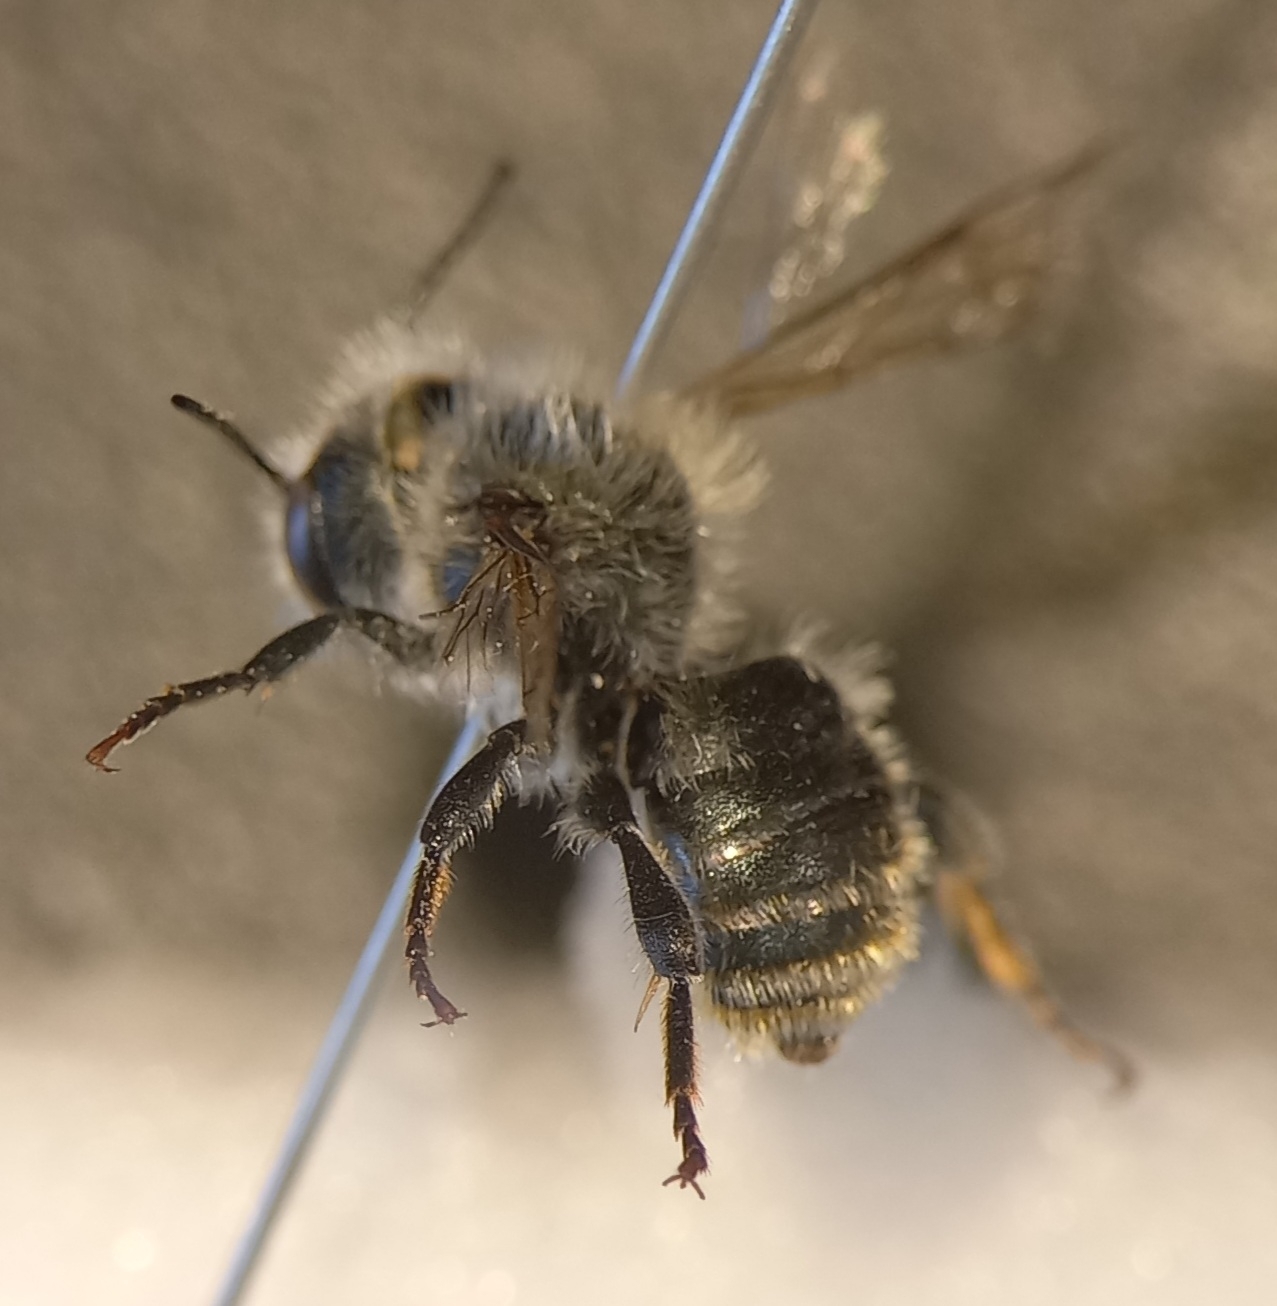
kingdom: Animalia
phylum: Arthropoda
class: Insecta
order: Hymenoptera
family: Megachilidae
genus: Osmia
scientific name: Osmia aurulenta
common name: Gold-fringed mason bee
